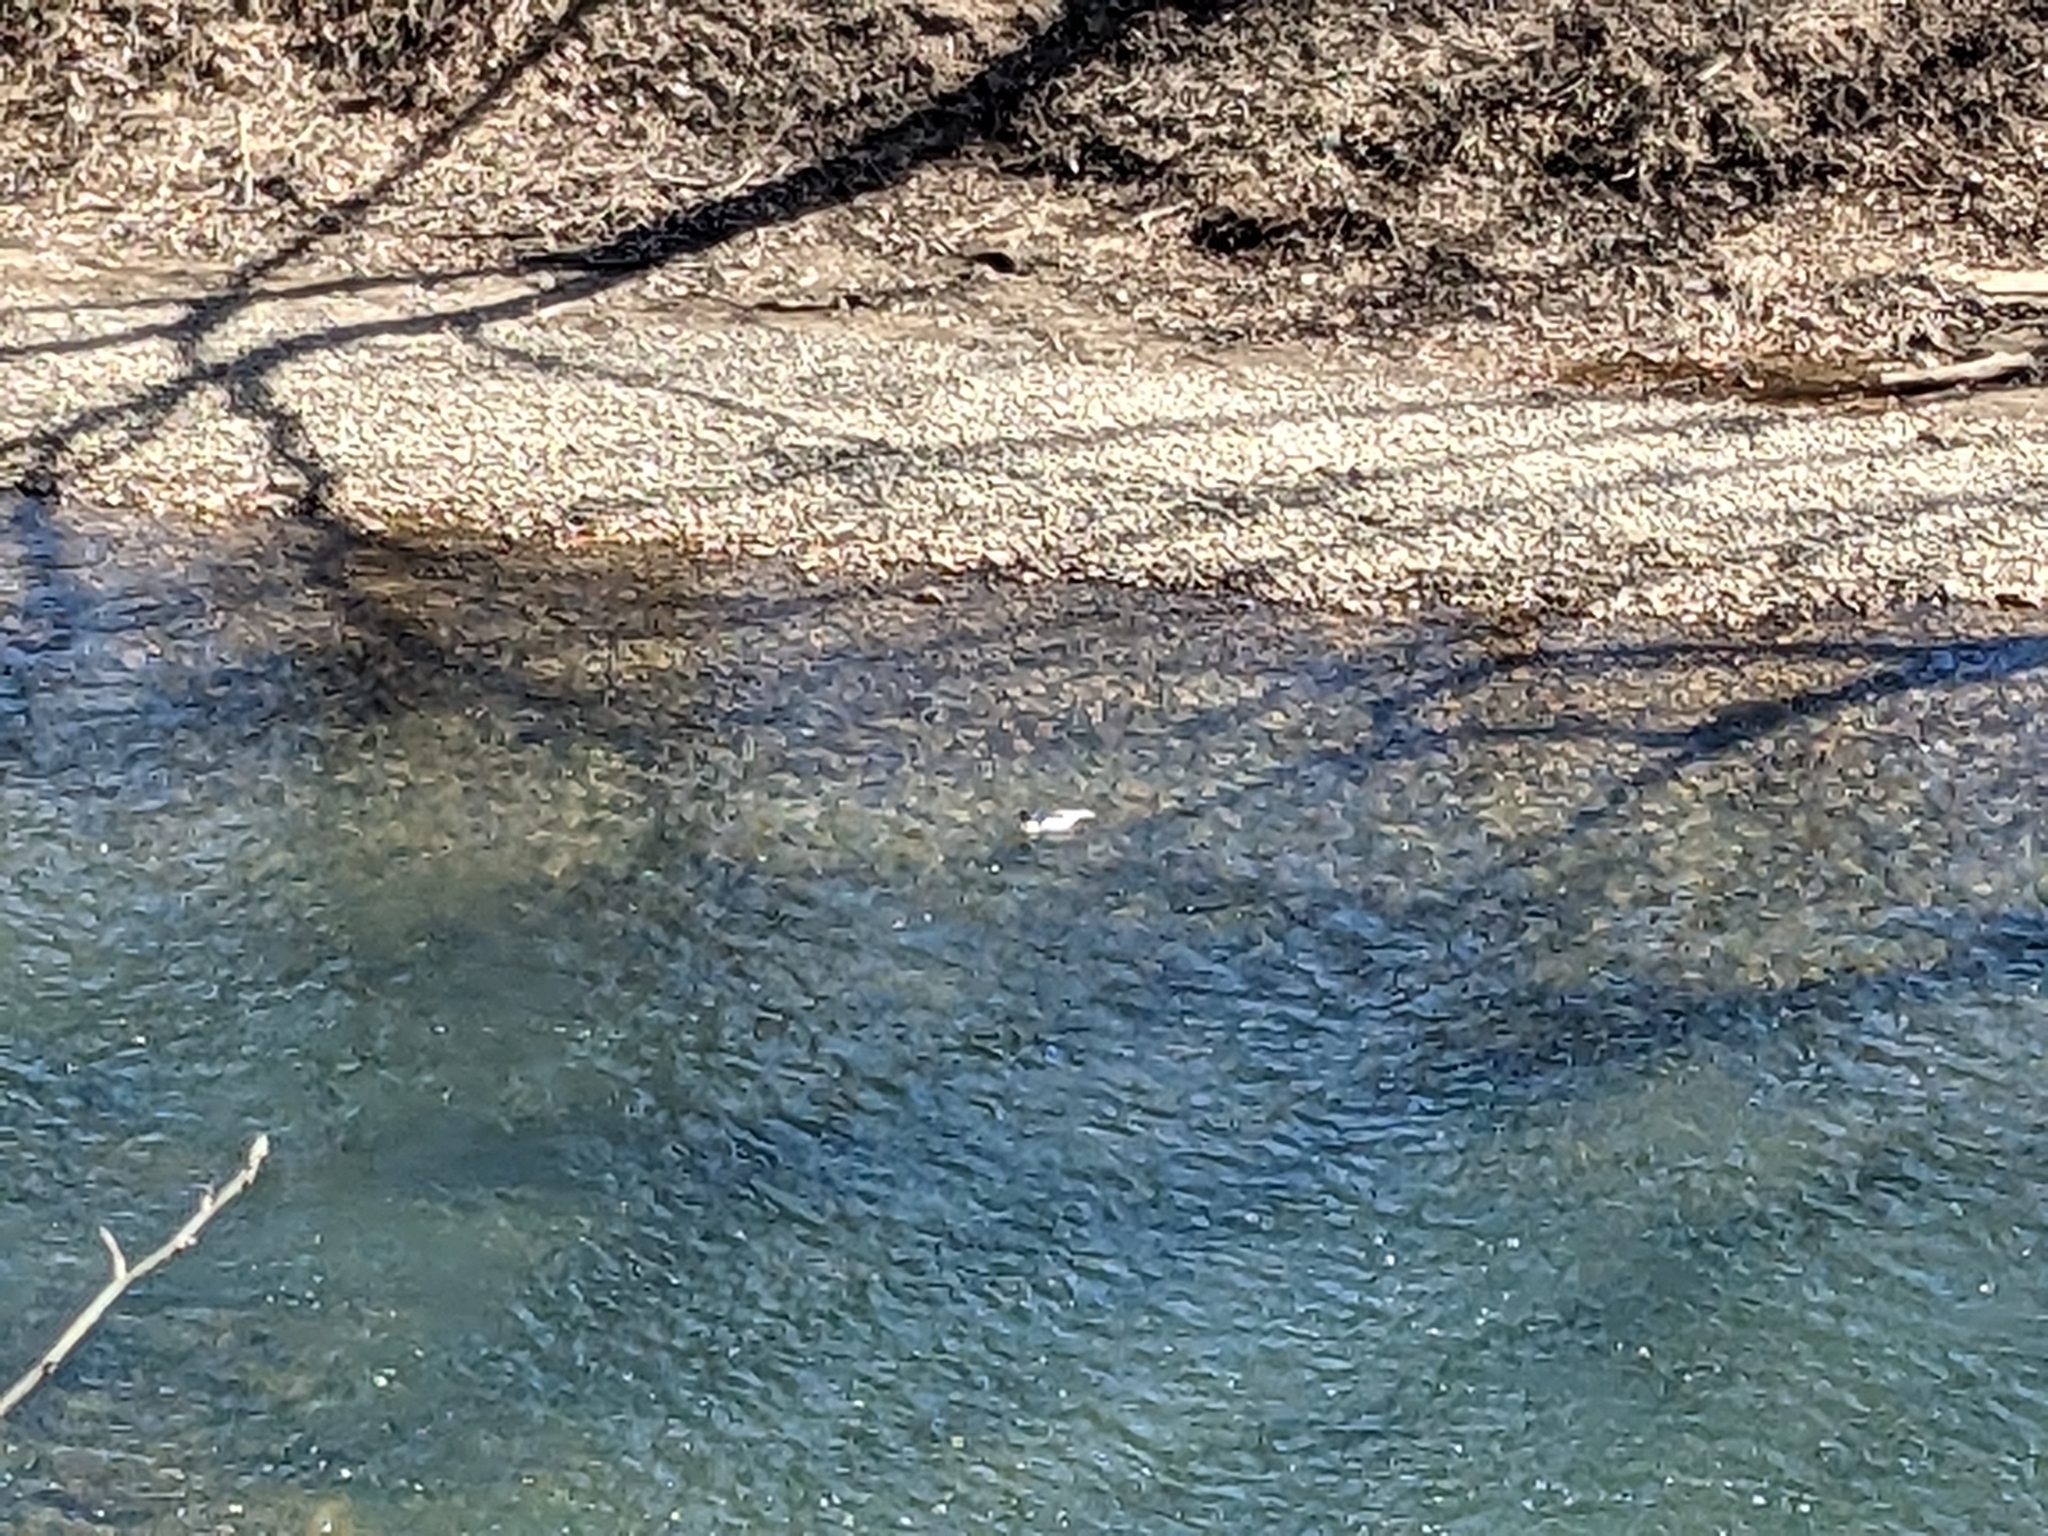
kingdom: Animalia
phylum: Chordata
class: Aves
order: Anseriformes
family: Anatidae
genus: Mergus
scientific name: Mergus merganser
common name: Common merganser
